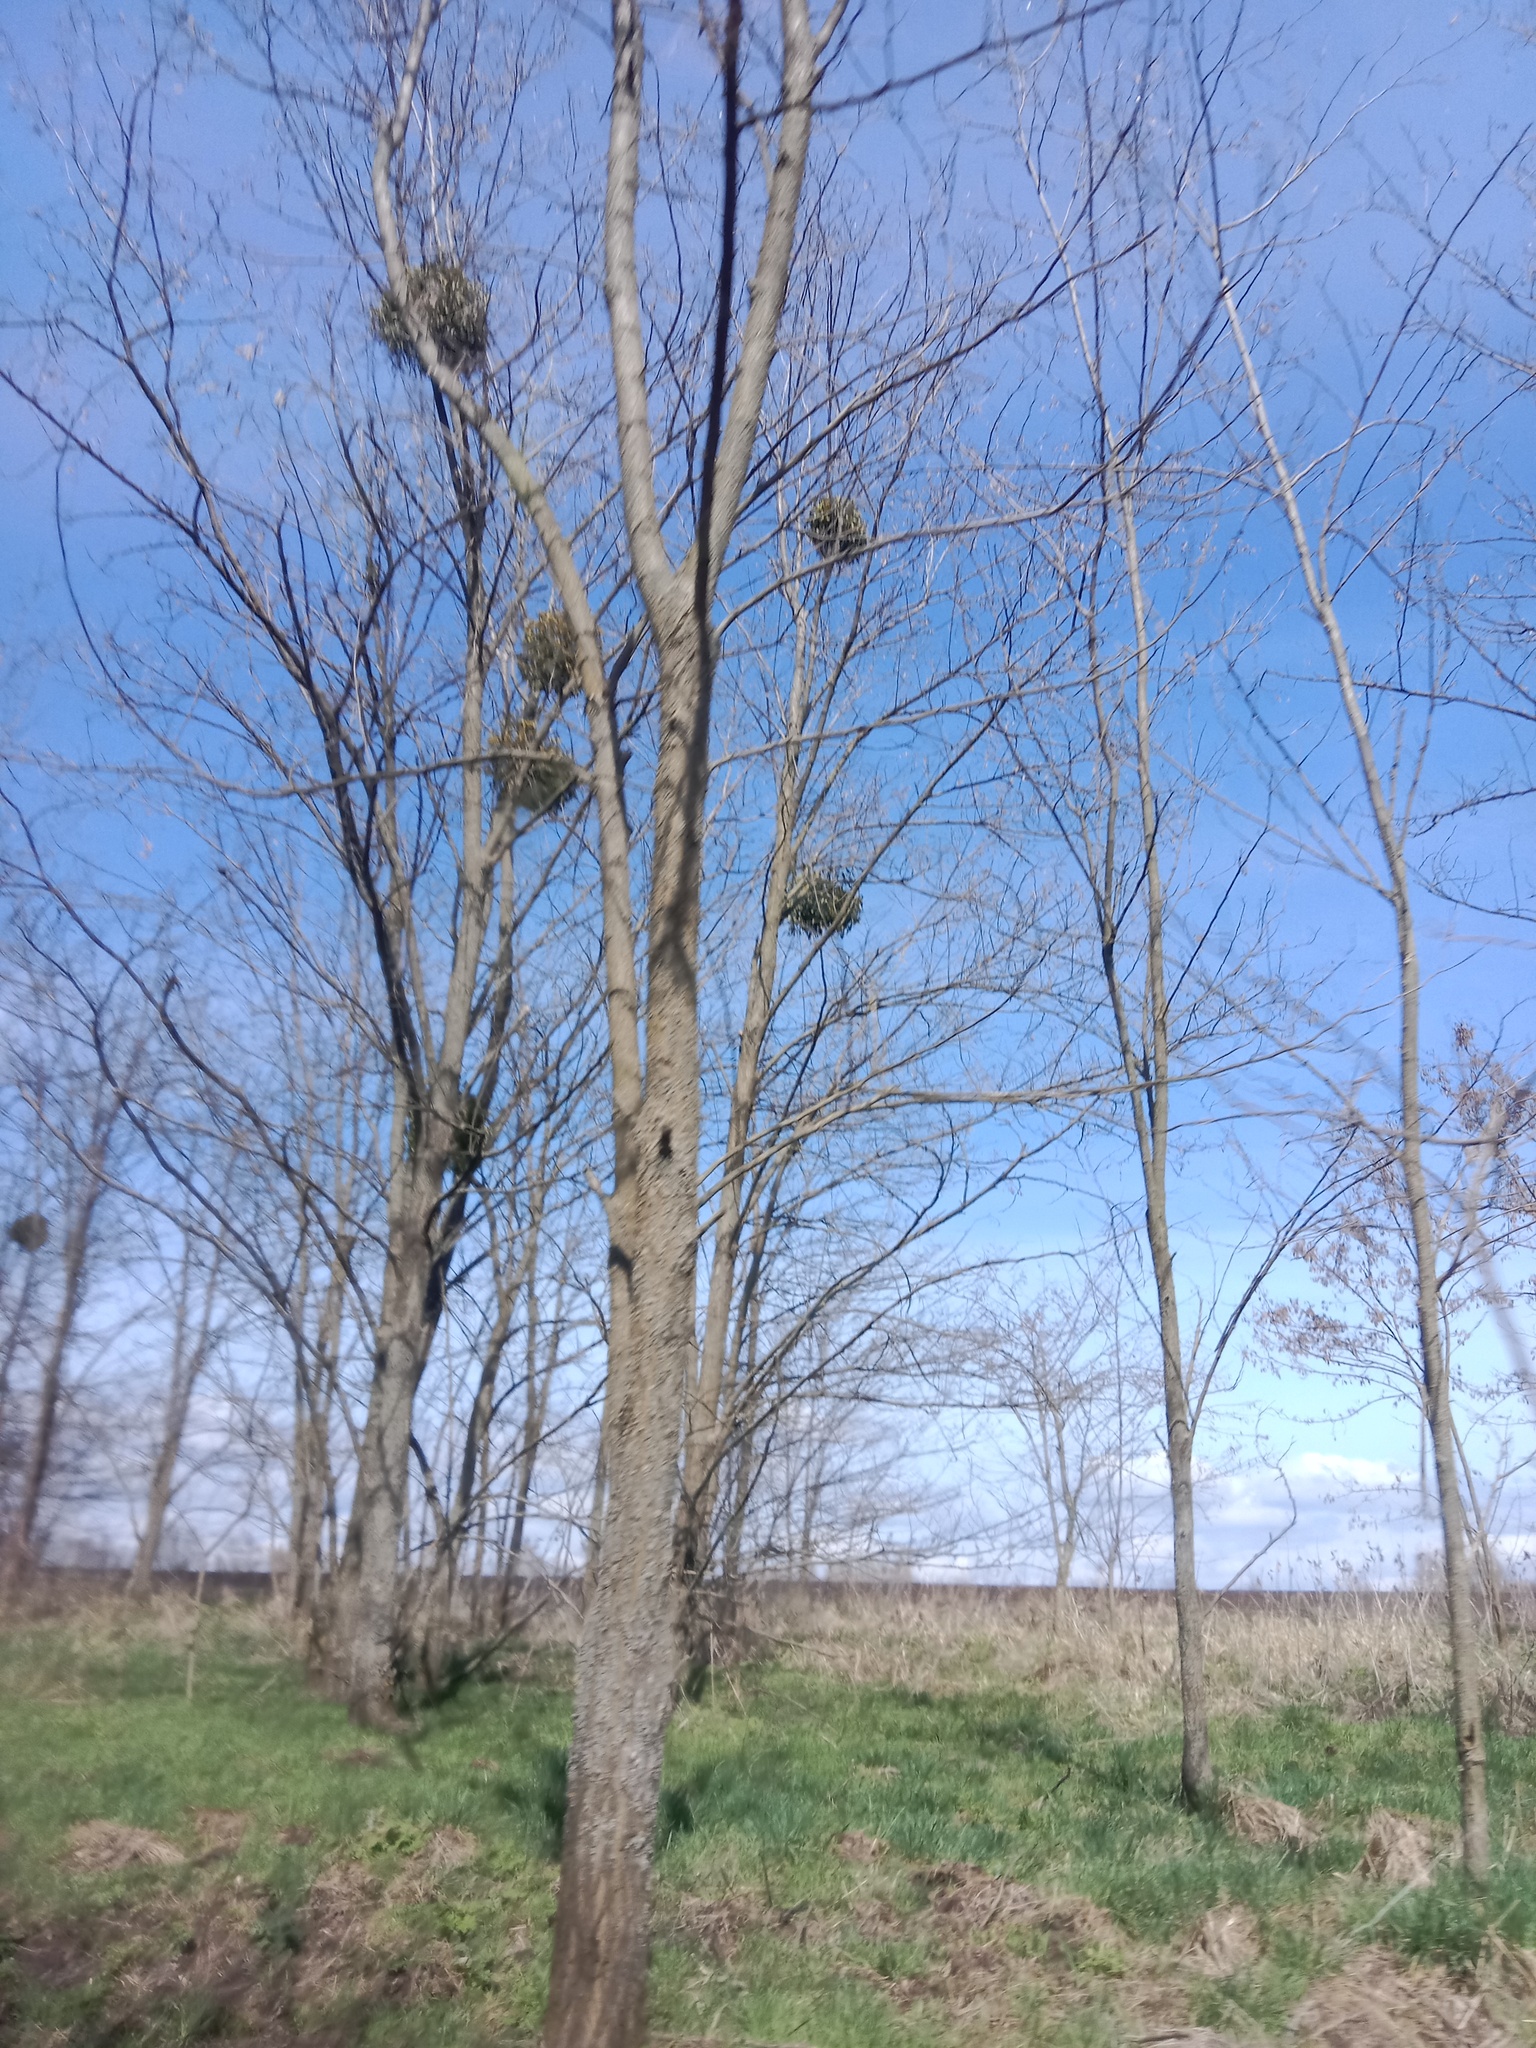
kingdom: Plantae
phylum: Tracheophyta
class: Magnoliopsida
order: Santalales
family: Viscaceae
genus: Viscum
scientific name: Viscum album
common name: Mistletoe
